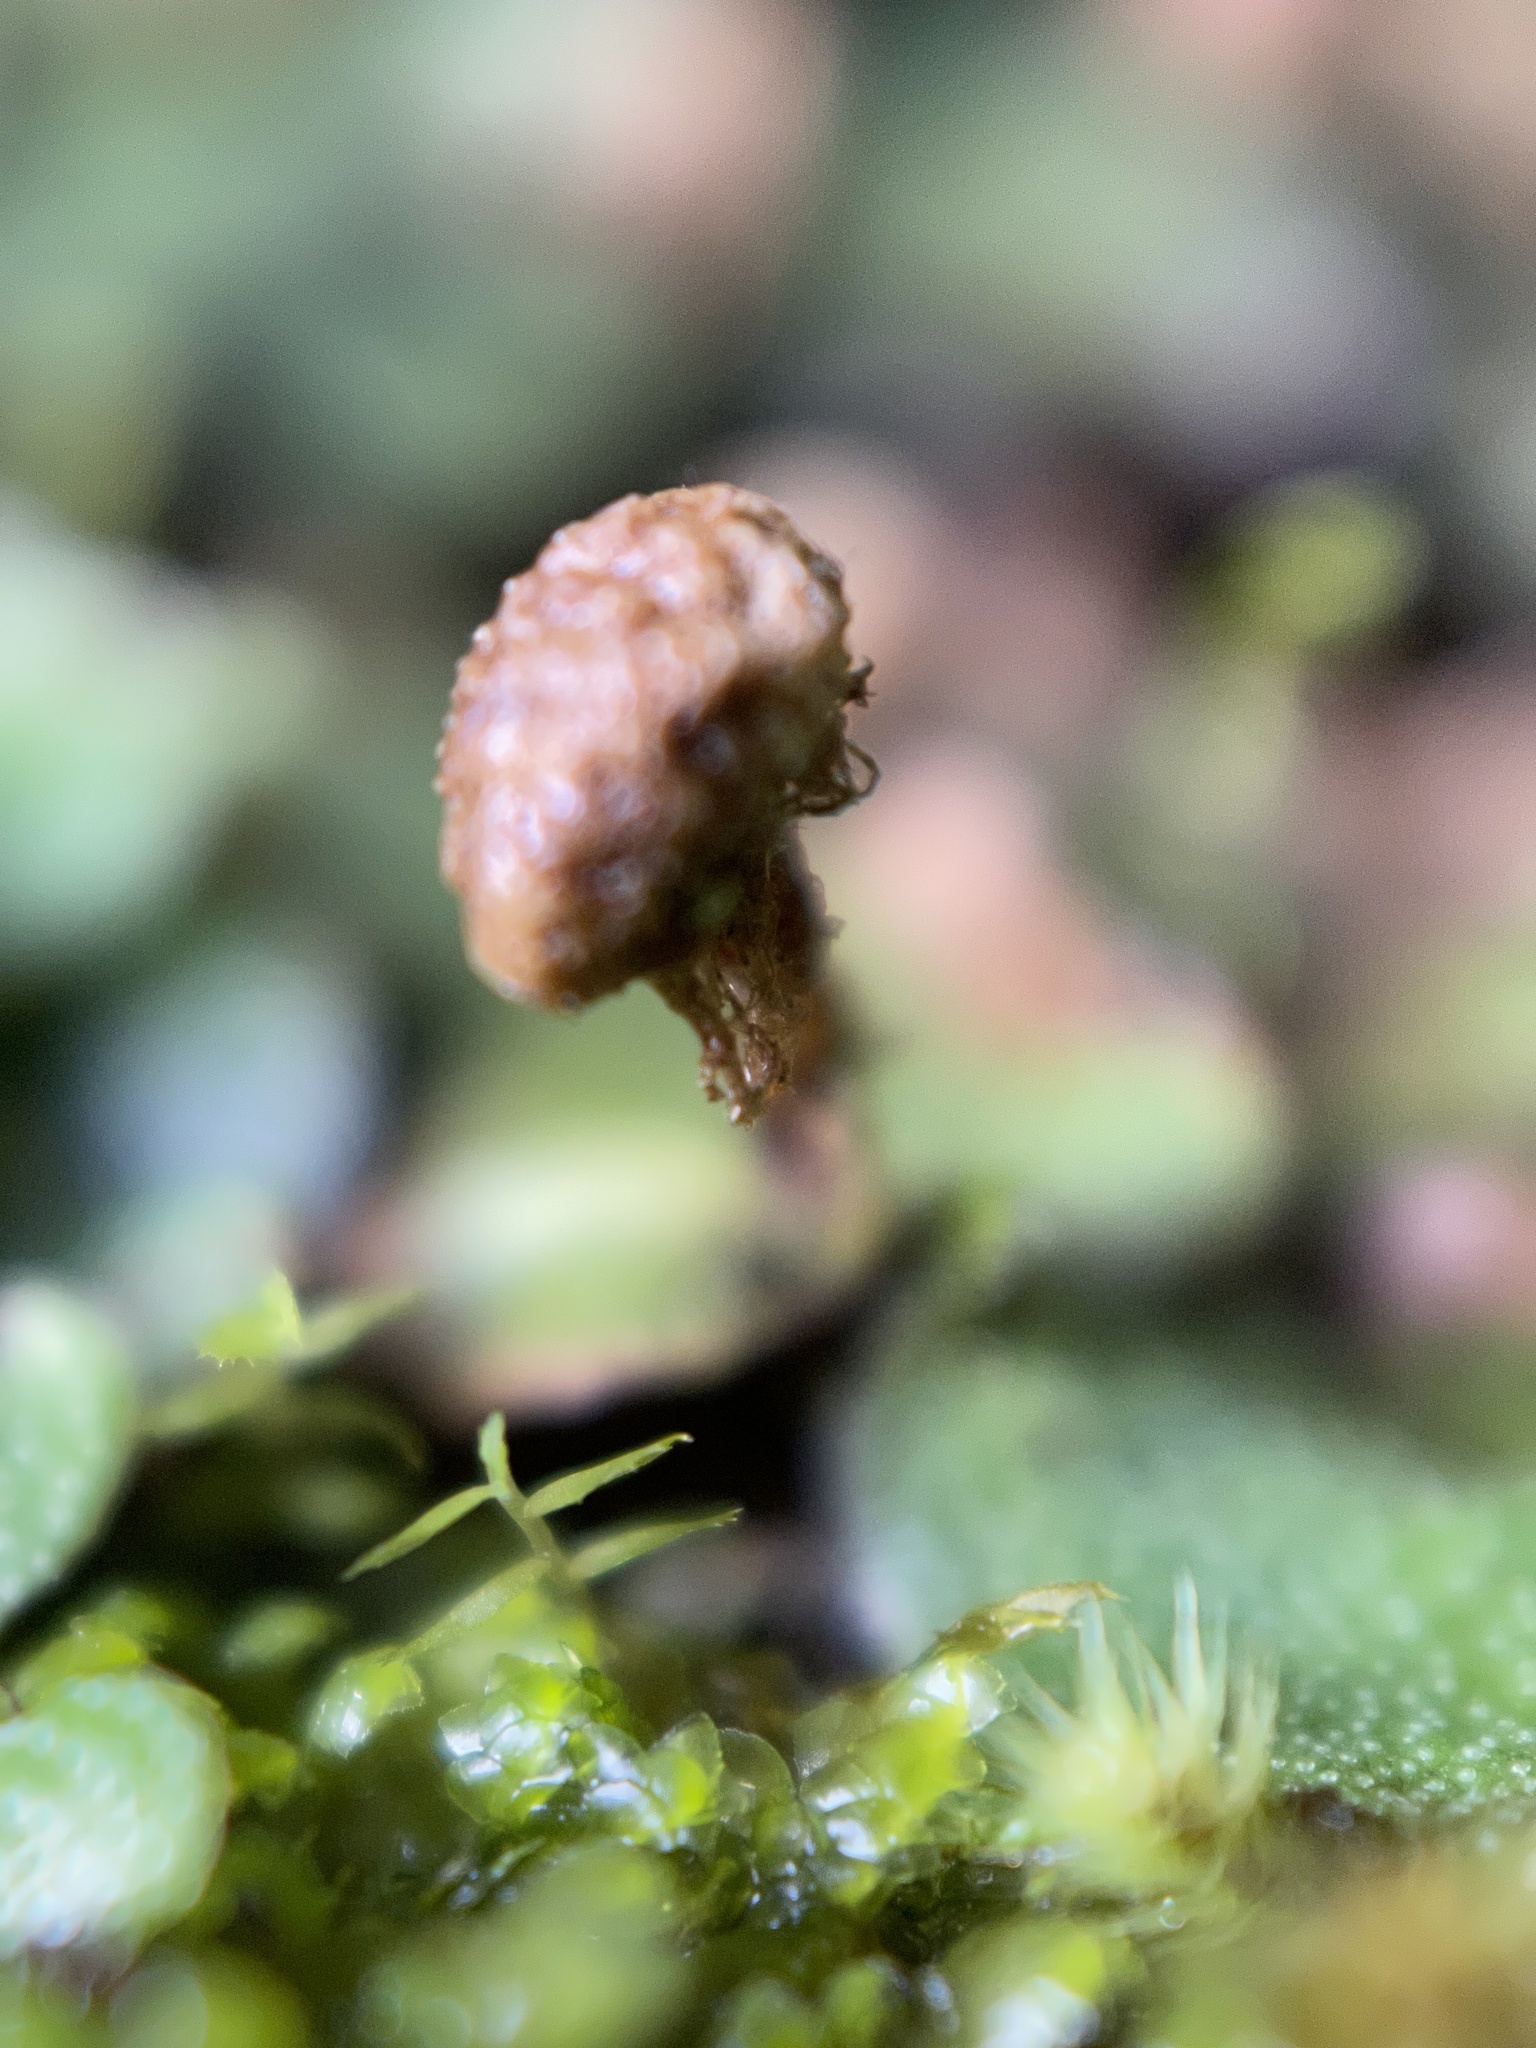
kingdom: Plantae
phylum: Marchantiophyta
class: Marchantiopsida
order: Marchantiales
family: Marchantiaceae
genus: Marchantia
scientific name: Marchantia chenopoda
